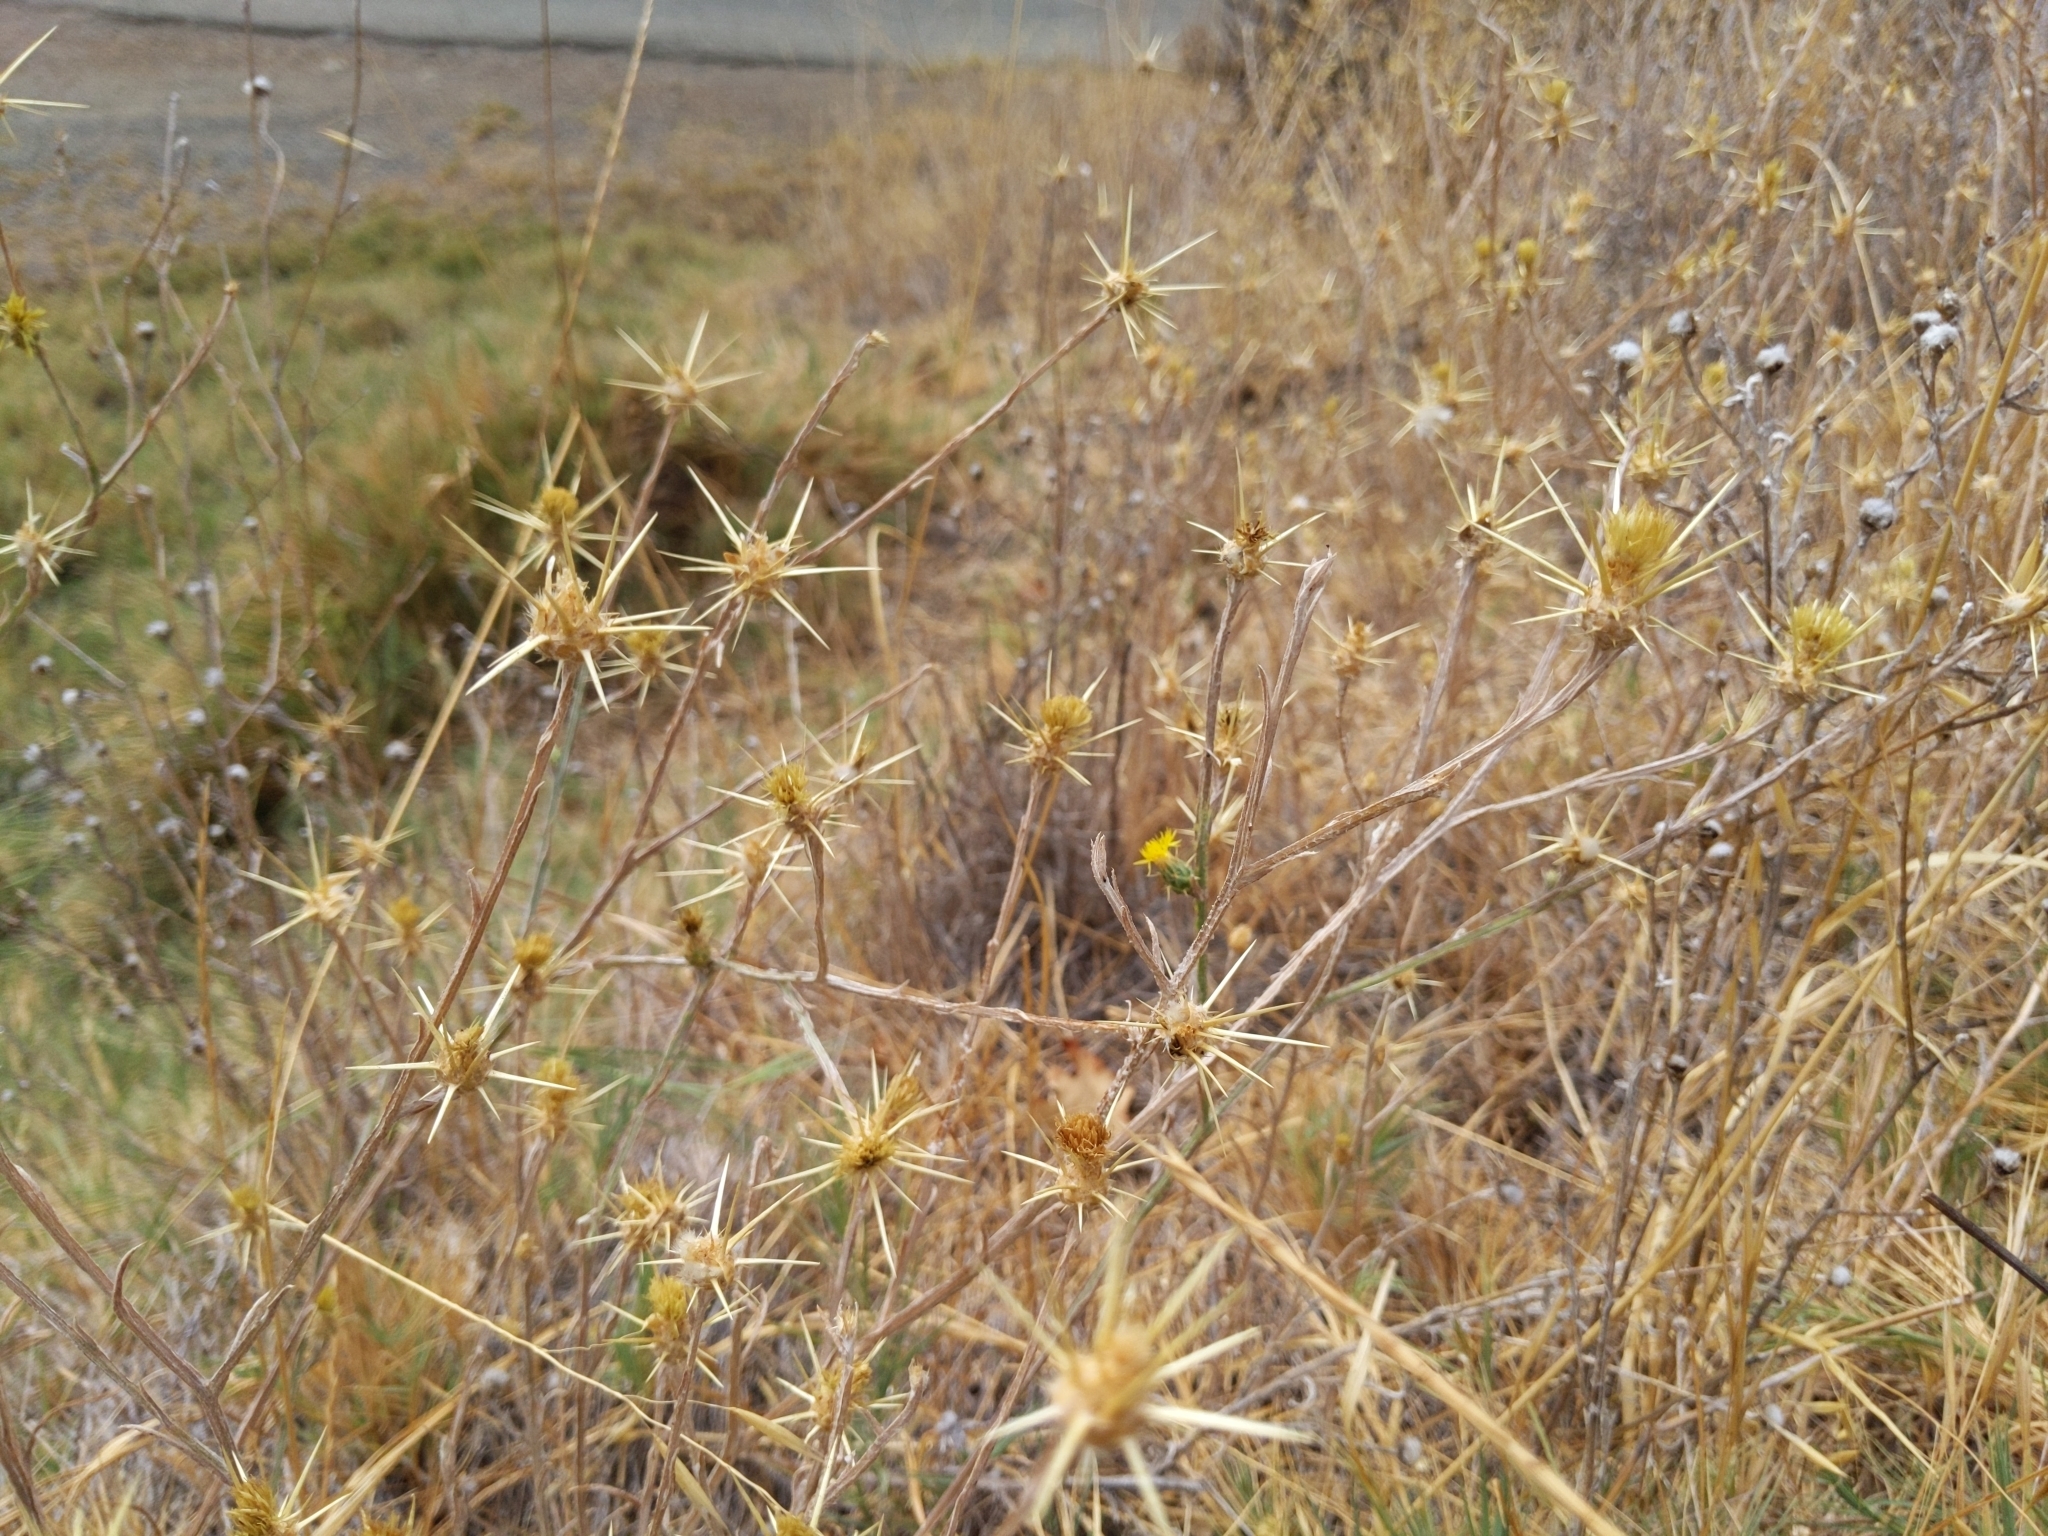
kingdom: Plantae
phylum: Tracheophyta
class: Magnoliopsida
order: Asterales
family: Asteraceae
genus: Centaurea
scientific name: Centaurea solstitialis
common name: Yellow star-thistle
